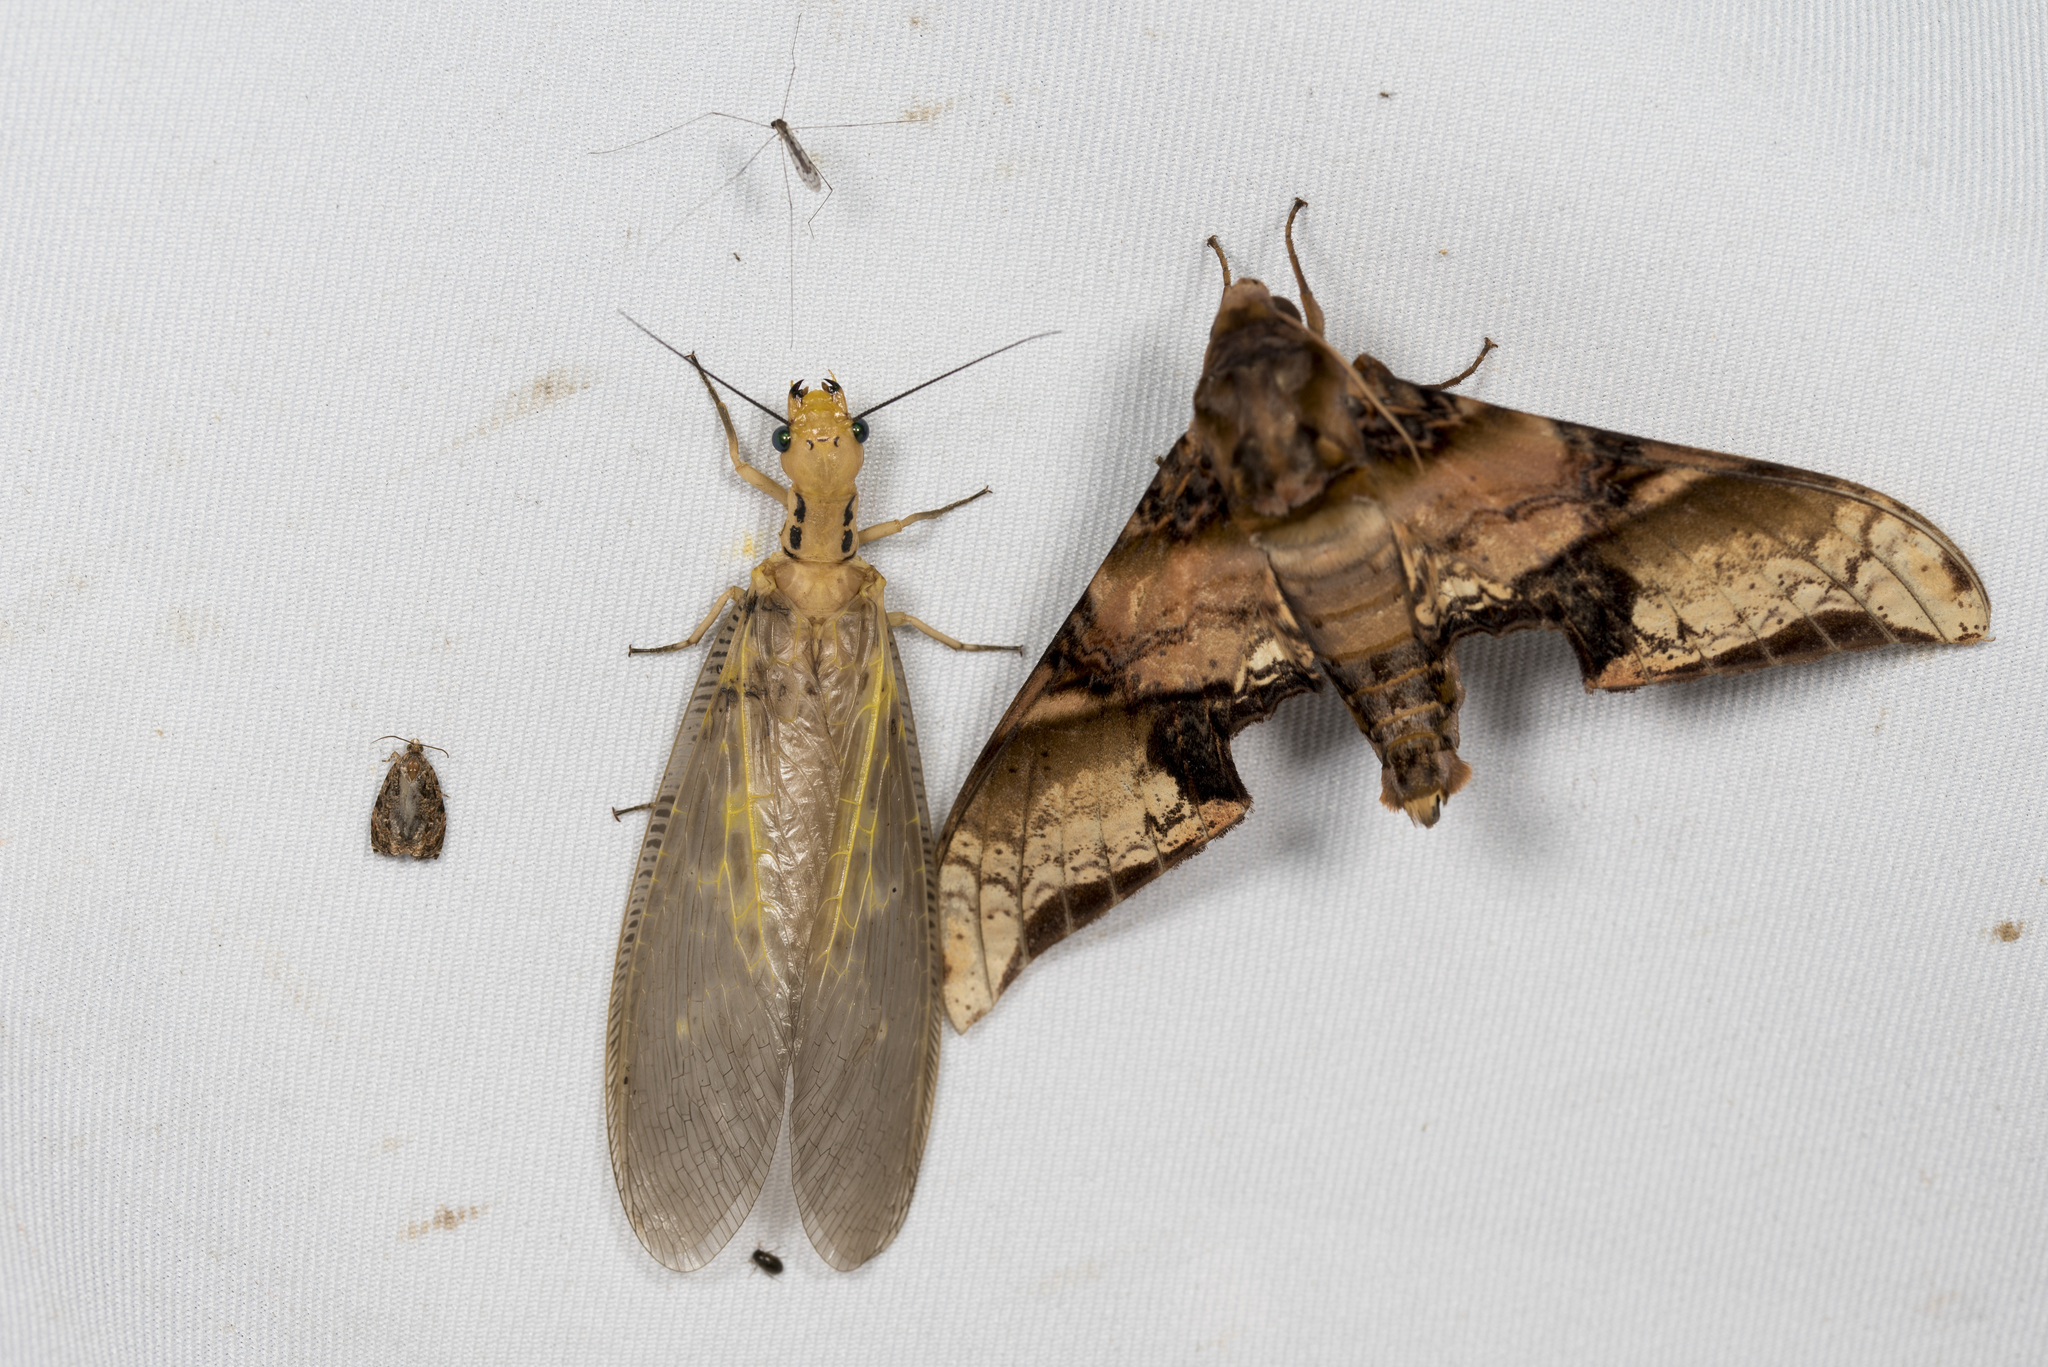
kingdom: Animalia
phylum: Arthropoda
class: Insecta
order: Megaloptera
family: Corydalidae
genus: Protohermes
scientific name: Protohermes costalis
